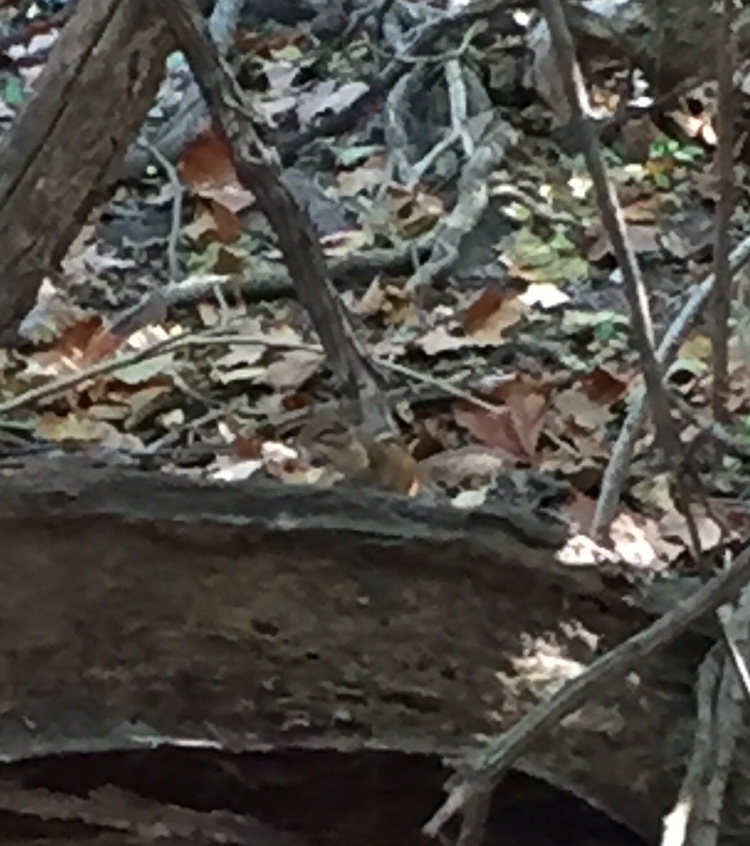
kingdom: Animalia
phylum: Chordata
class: Mammalia
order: Rodentia
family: Sciuridae
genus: Tamias
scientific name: Tamias striatus
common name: Eastern chipmunk
